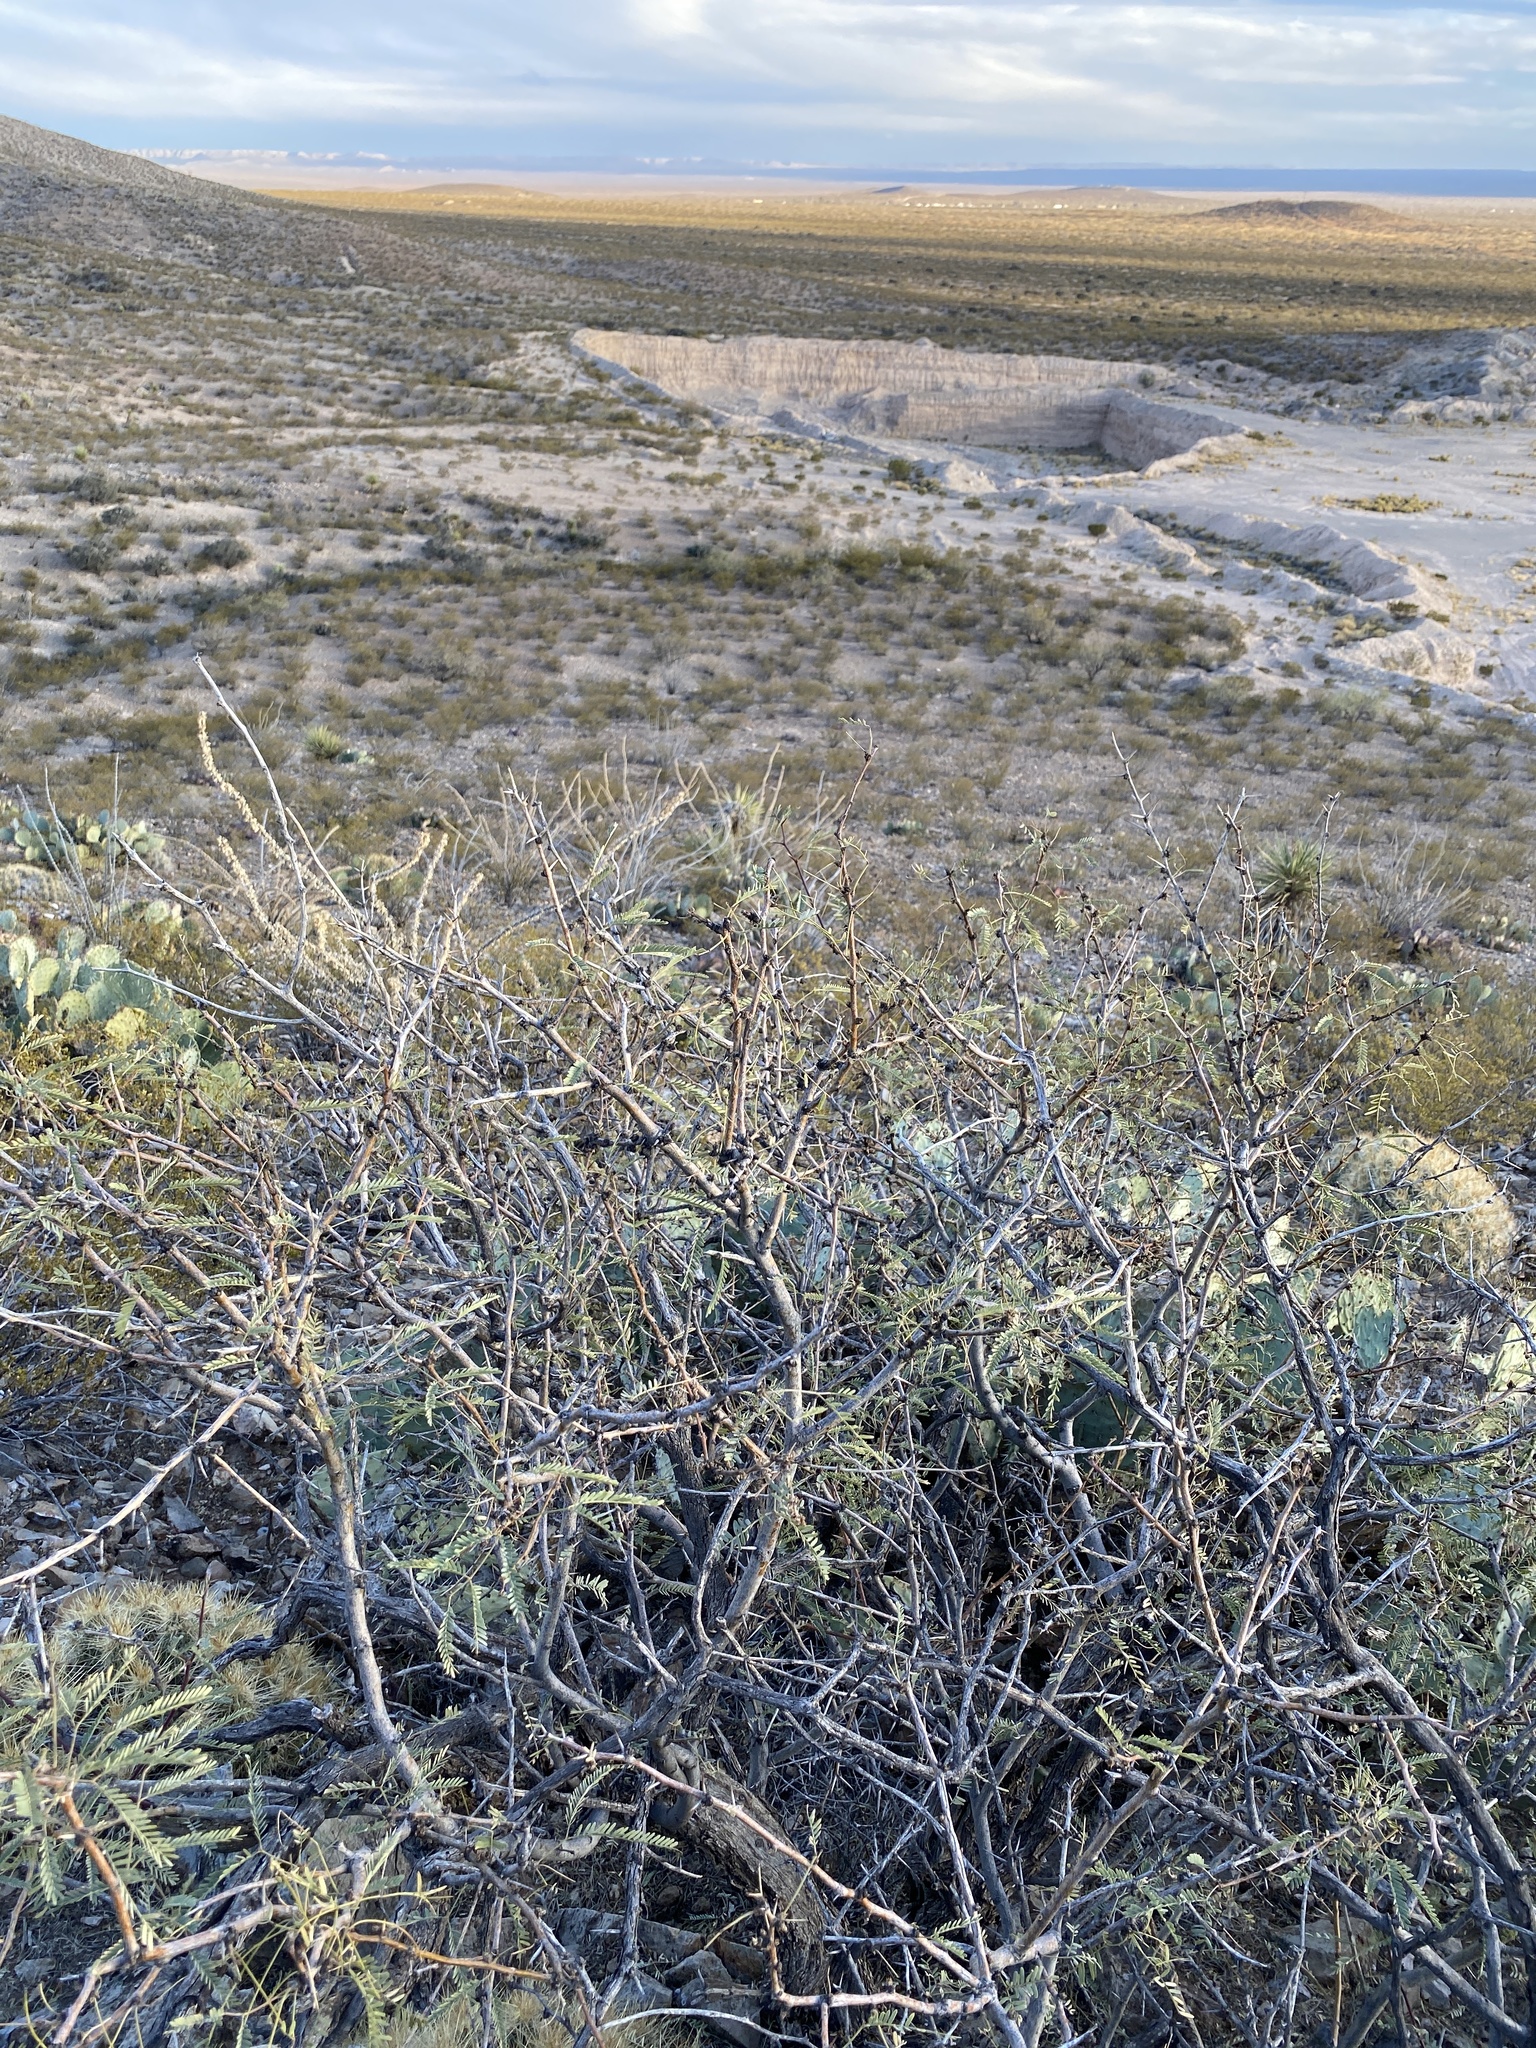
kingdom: Plantae
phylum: Tracheophyta
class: Magnoliopsida
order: Fabales
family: Fabaceae
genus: Prosopis
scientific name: Prosopis glandulosa
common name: Honey mesquite
